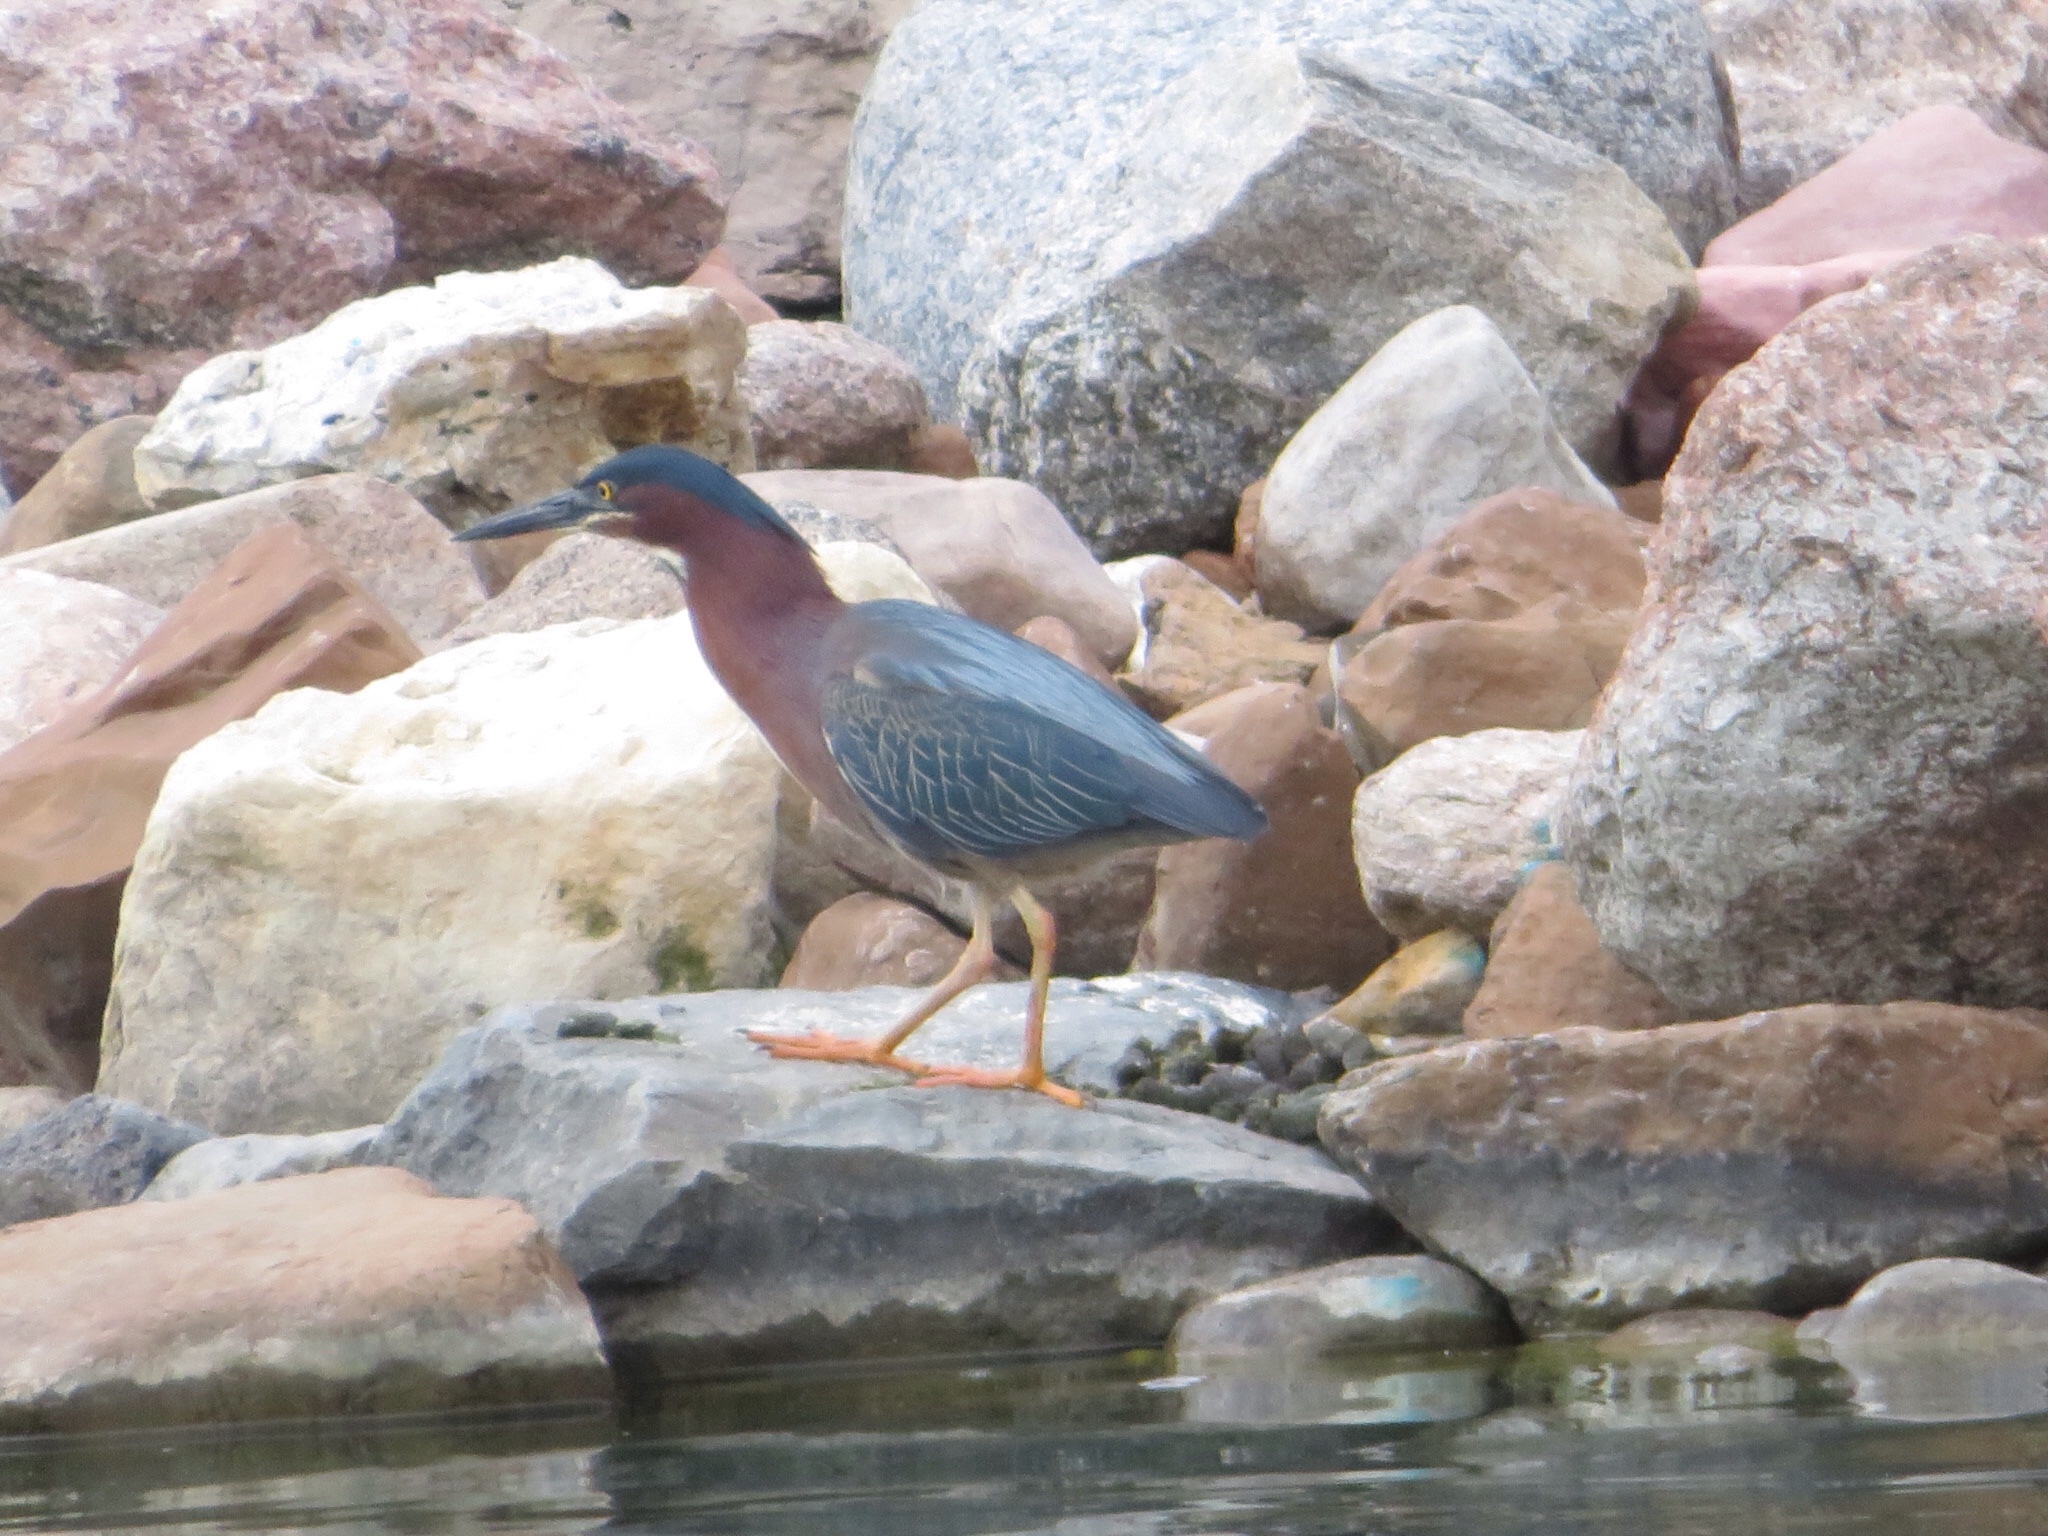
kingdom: Animalia
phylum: Chordata
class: Aves
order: Pelecaniformes
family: Ardeidae
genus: Butorides
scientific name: Butorides virescens
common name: Green heron
